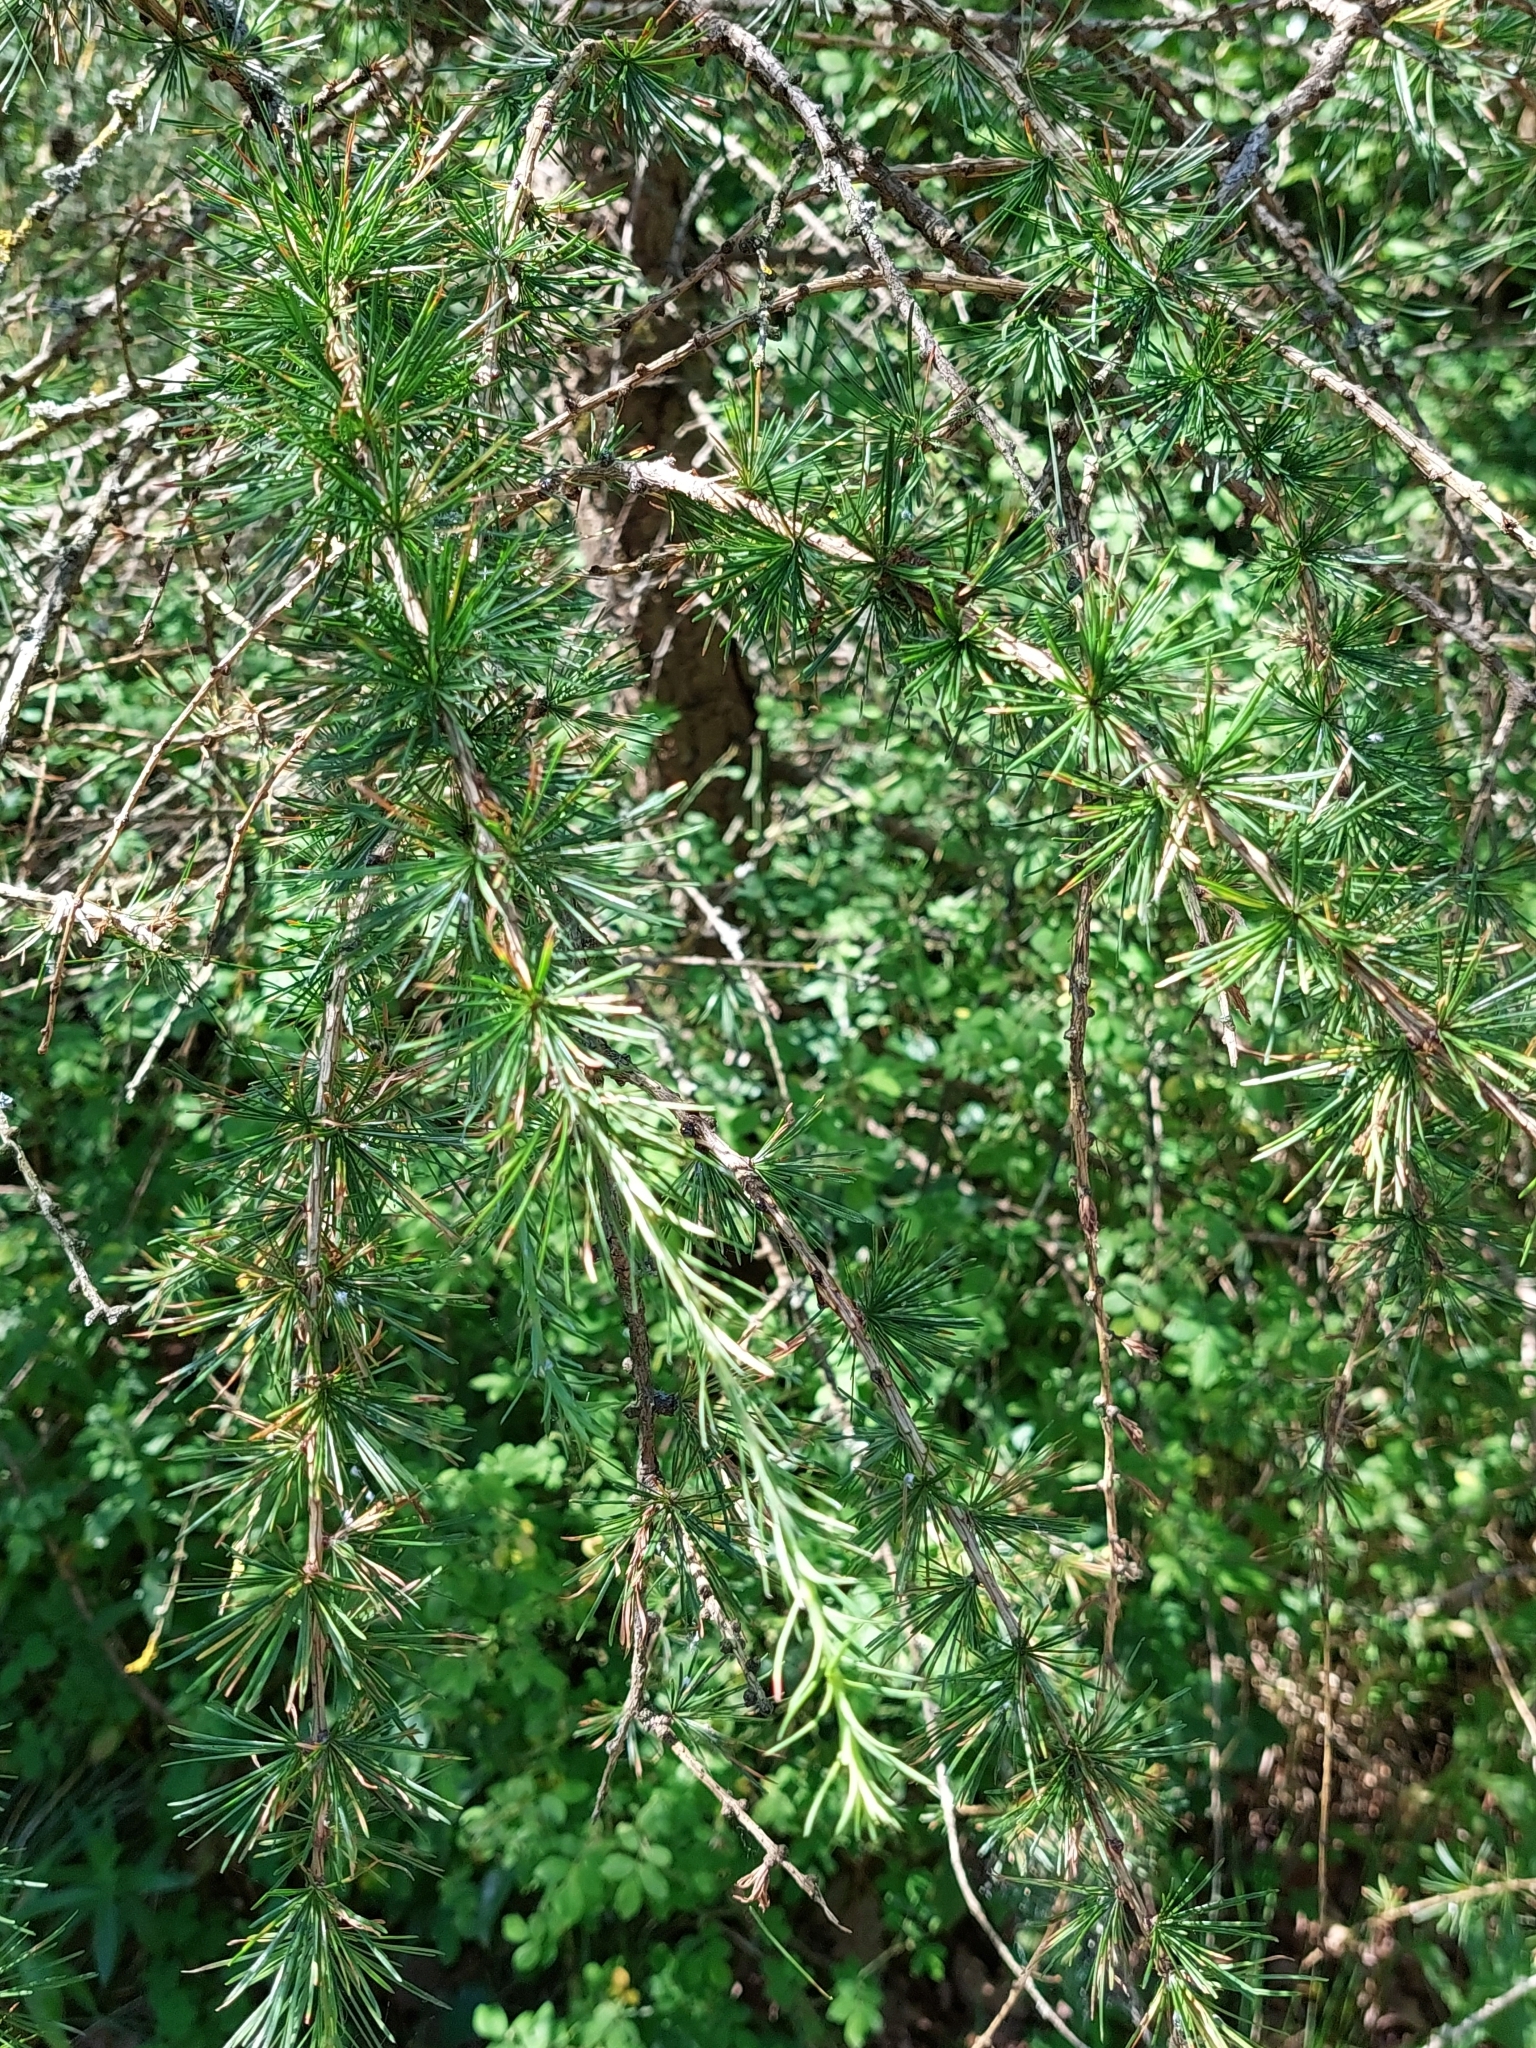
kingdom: Plantae
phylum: Tracheophyta
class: Pinopsida
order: Pinales
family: Pinaceae
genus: Larix
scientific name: Larix decidua
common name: European larch
